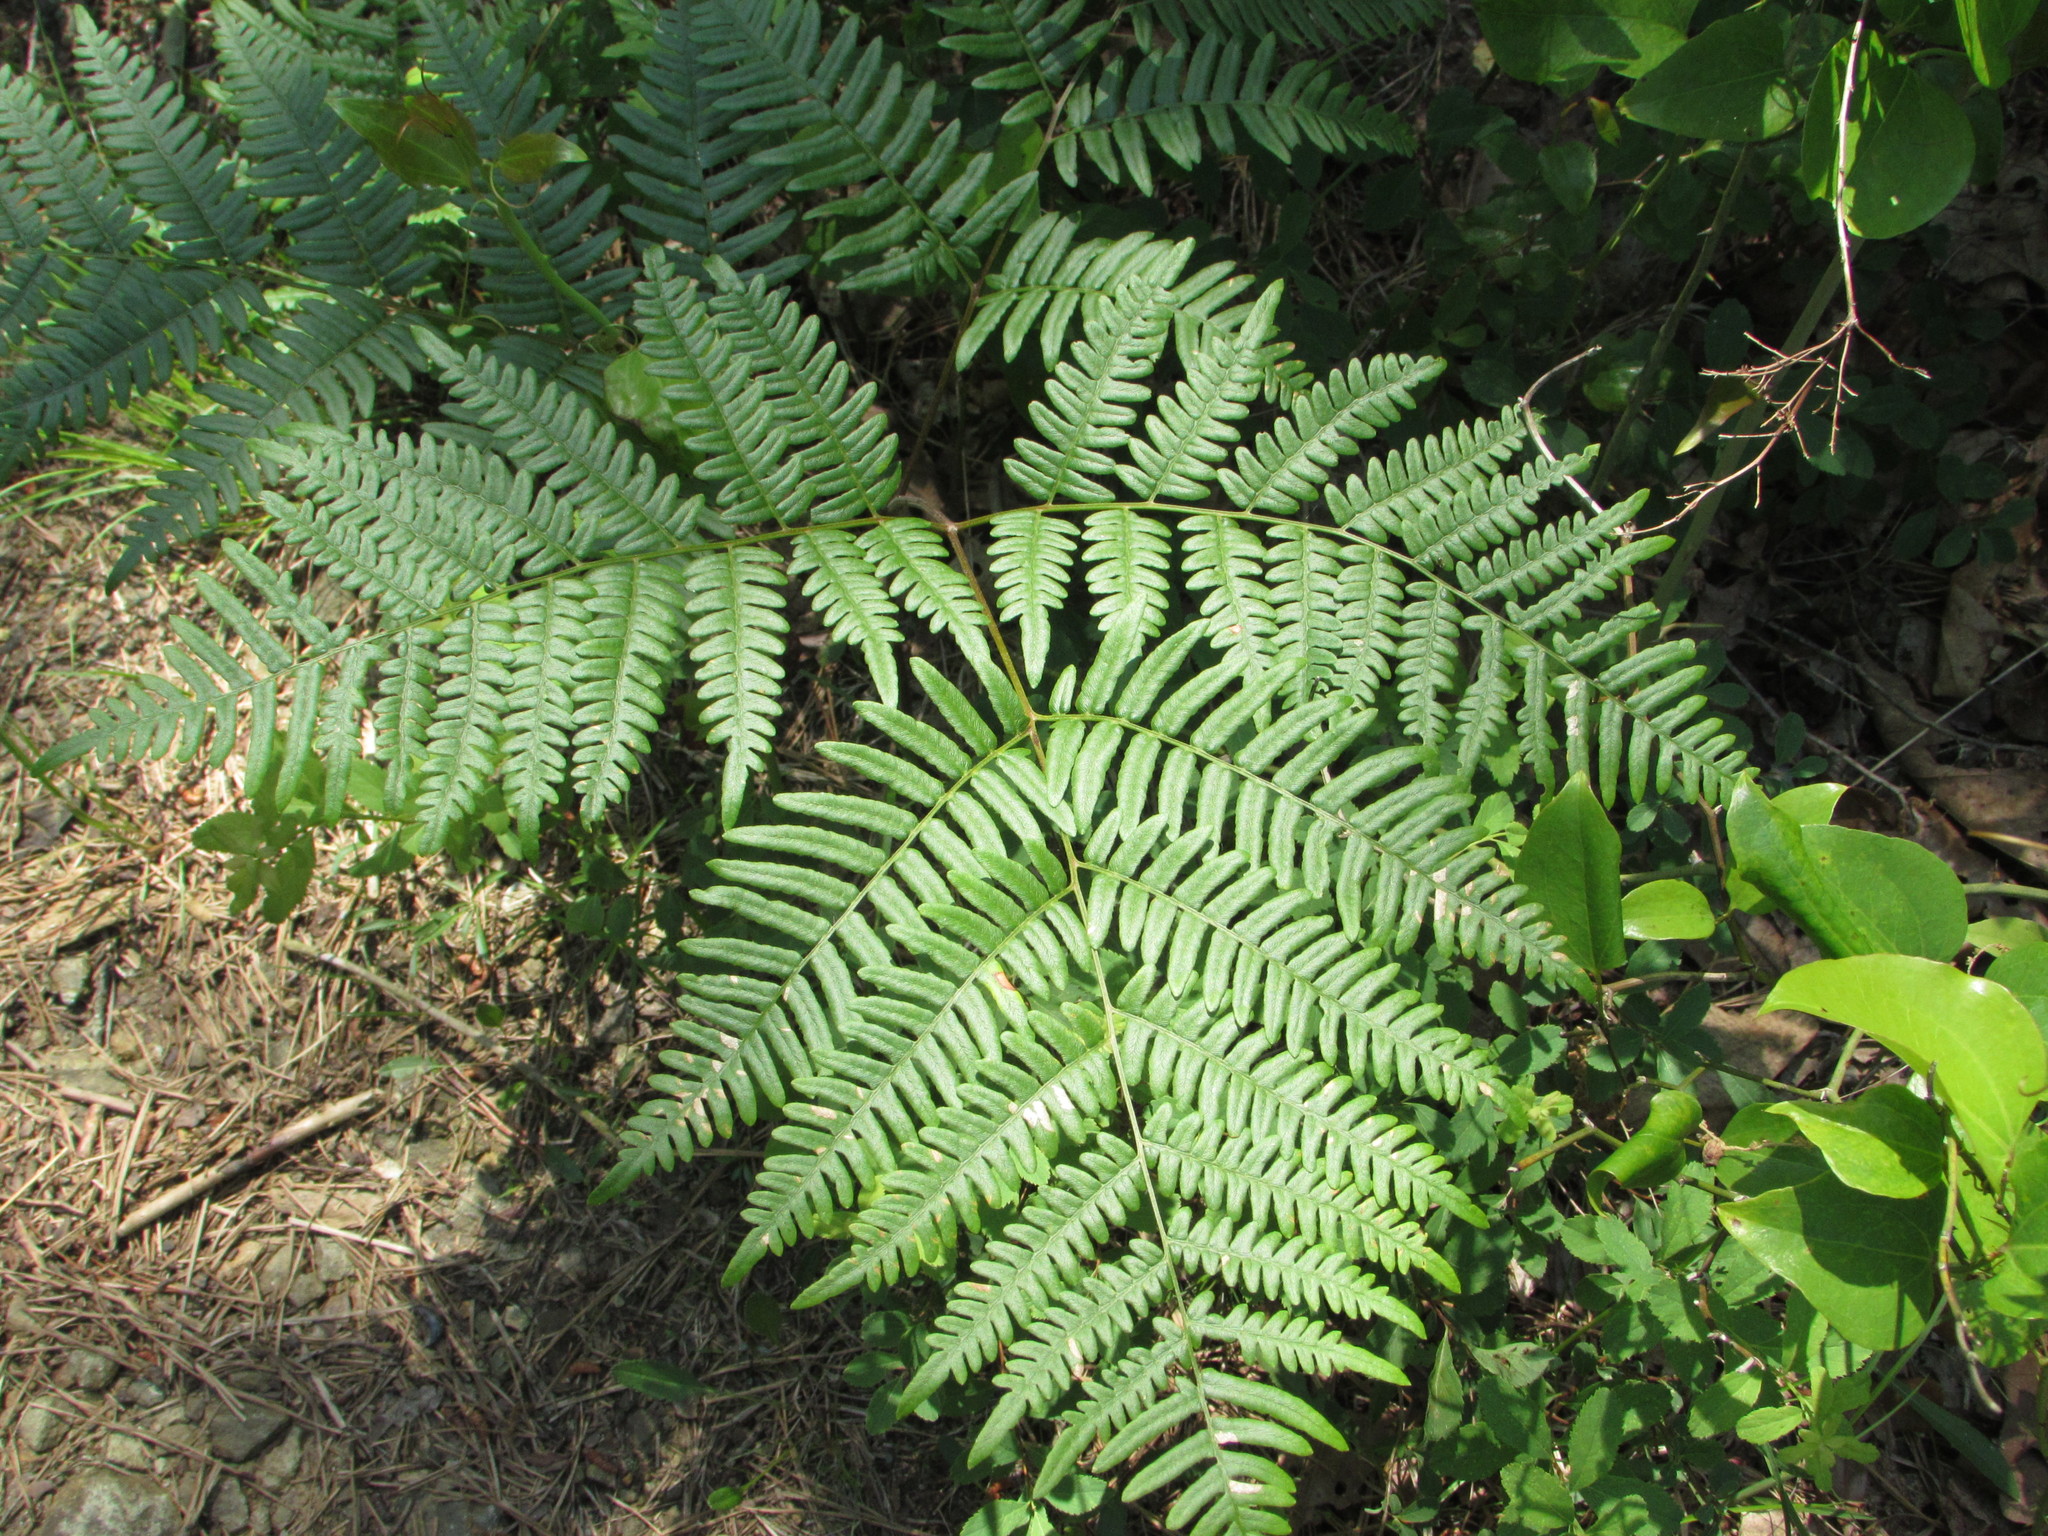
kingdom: Plantae
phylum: Tracheophyta
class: Polypodiopsida
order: Polypodiales
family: Dennstaedtiaceae
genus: Pteridium
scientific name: Pteridium aquilinum
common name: Bracken
